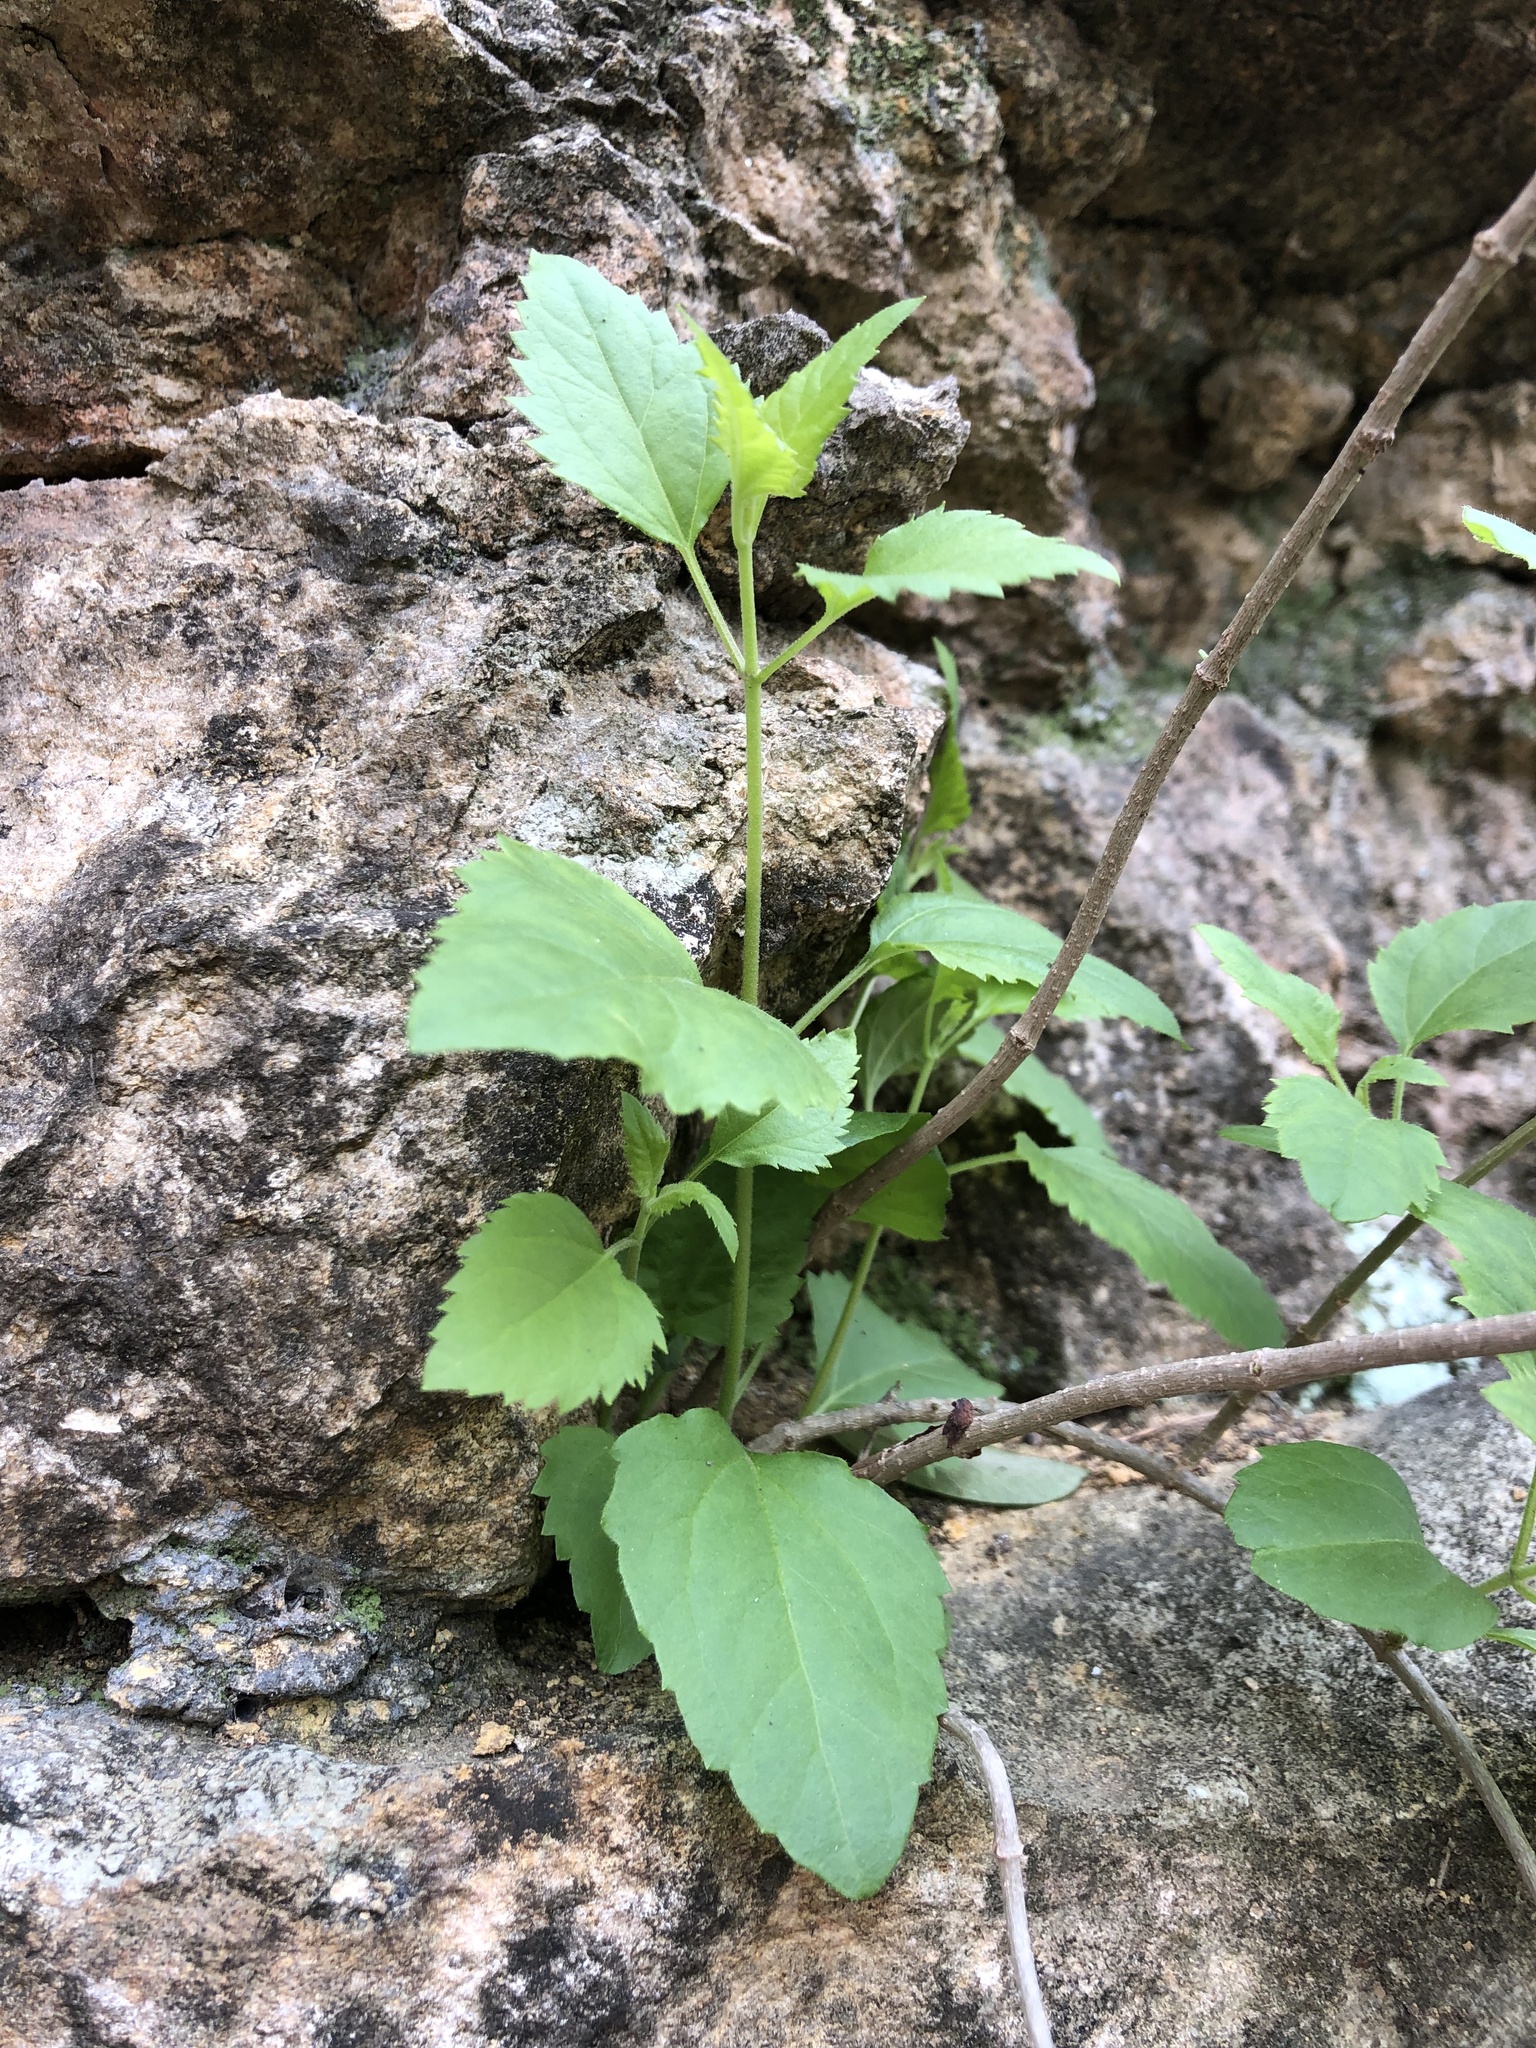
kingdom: Plantae
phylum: Tracheophyta
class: Magnoliopsida
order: Asterales
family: Asteraceae
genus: Ageratina
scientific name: Ageratina havanensis
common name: Havana snakeroot
